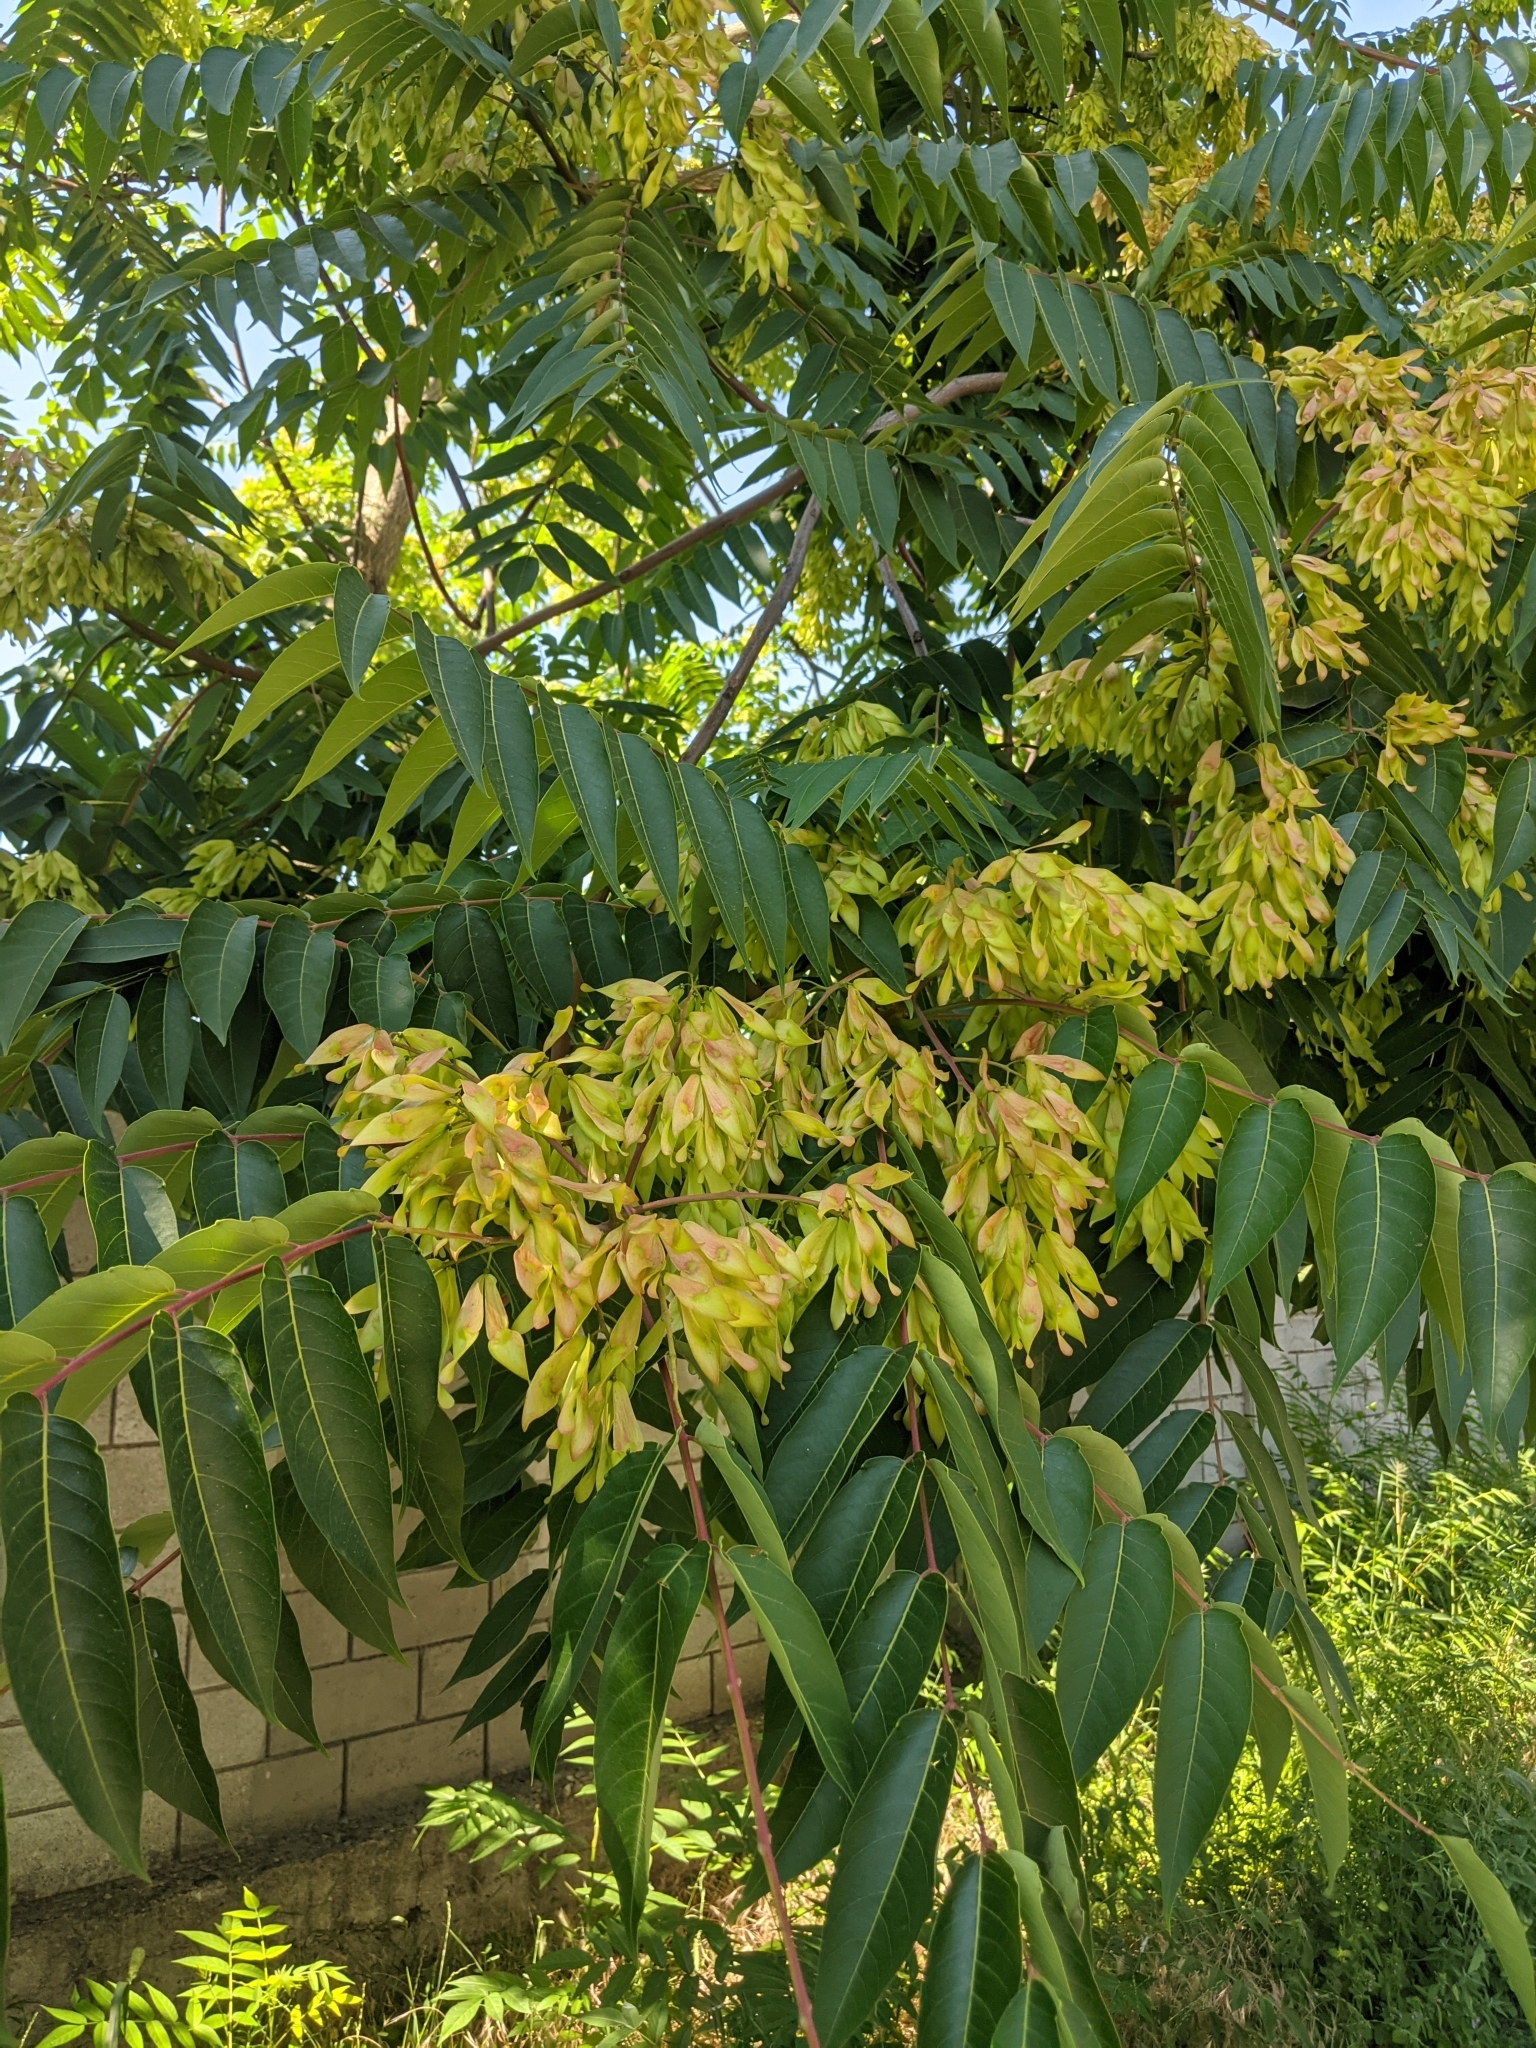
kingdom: Plantae
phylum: Tracheophyta
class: Magnoliopsida
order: Sapindales
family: Simaroubaceae
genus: Ailanthus
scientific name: Ailanthus altissima
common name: Tree-of-heaven
